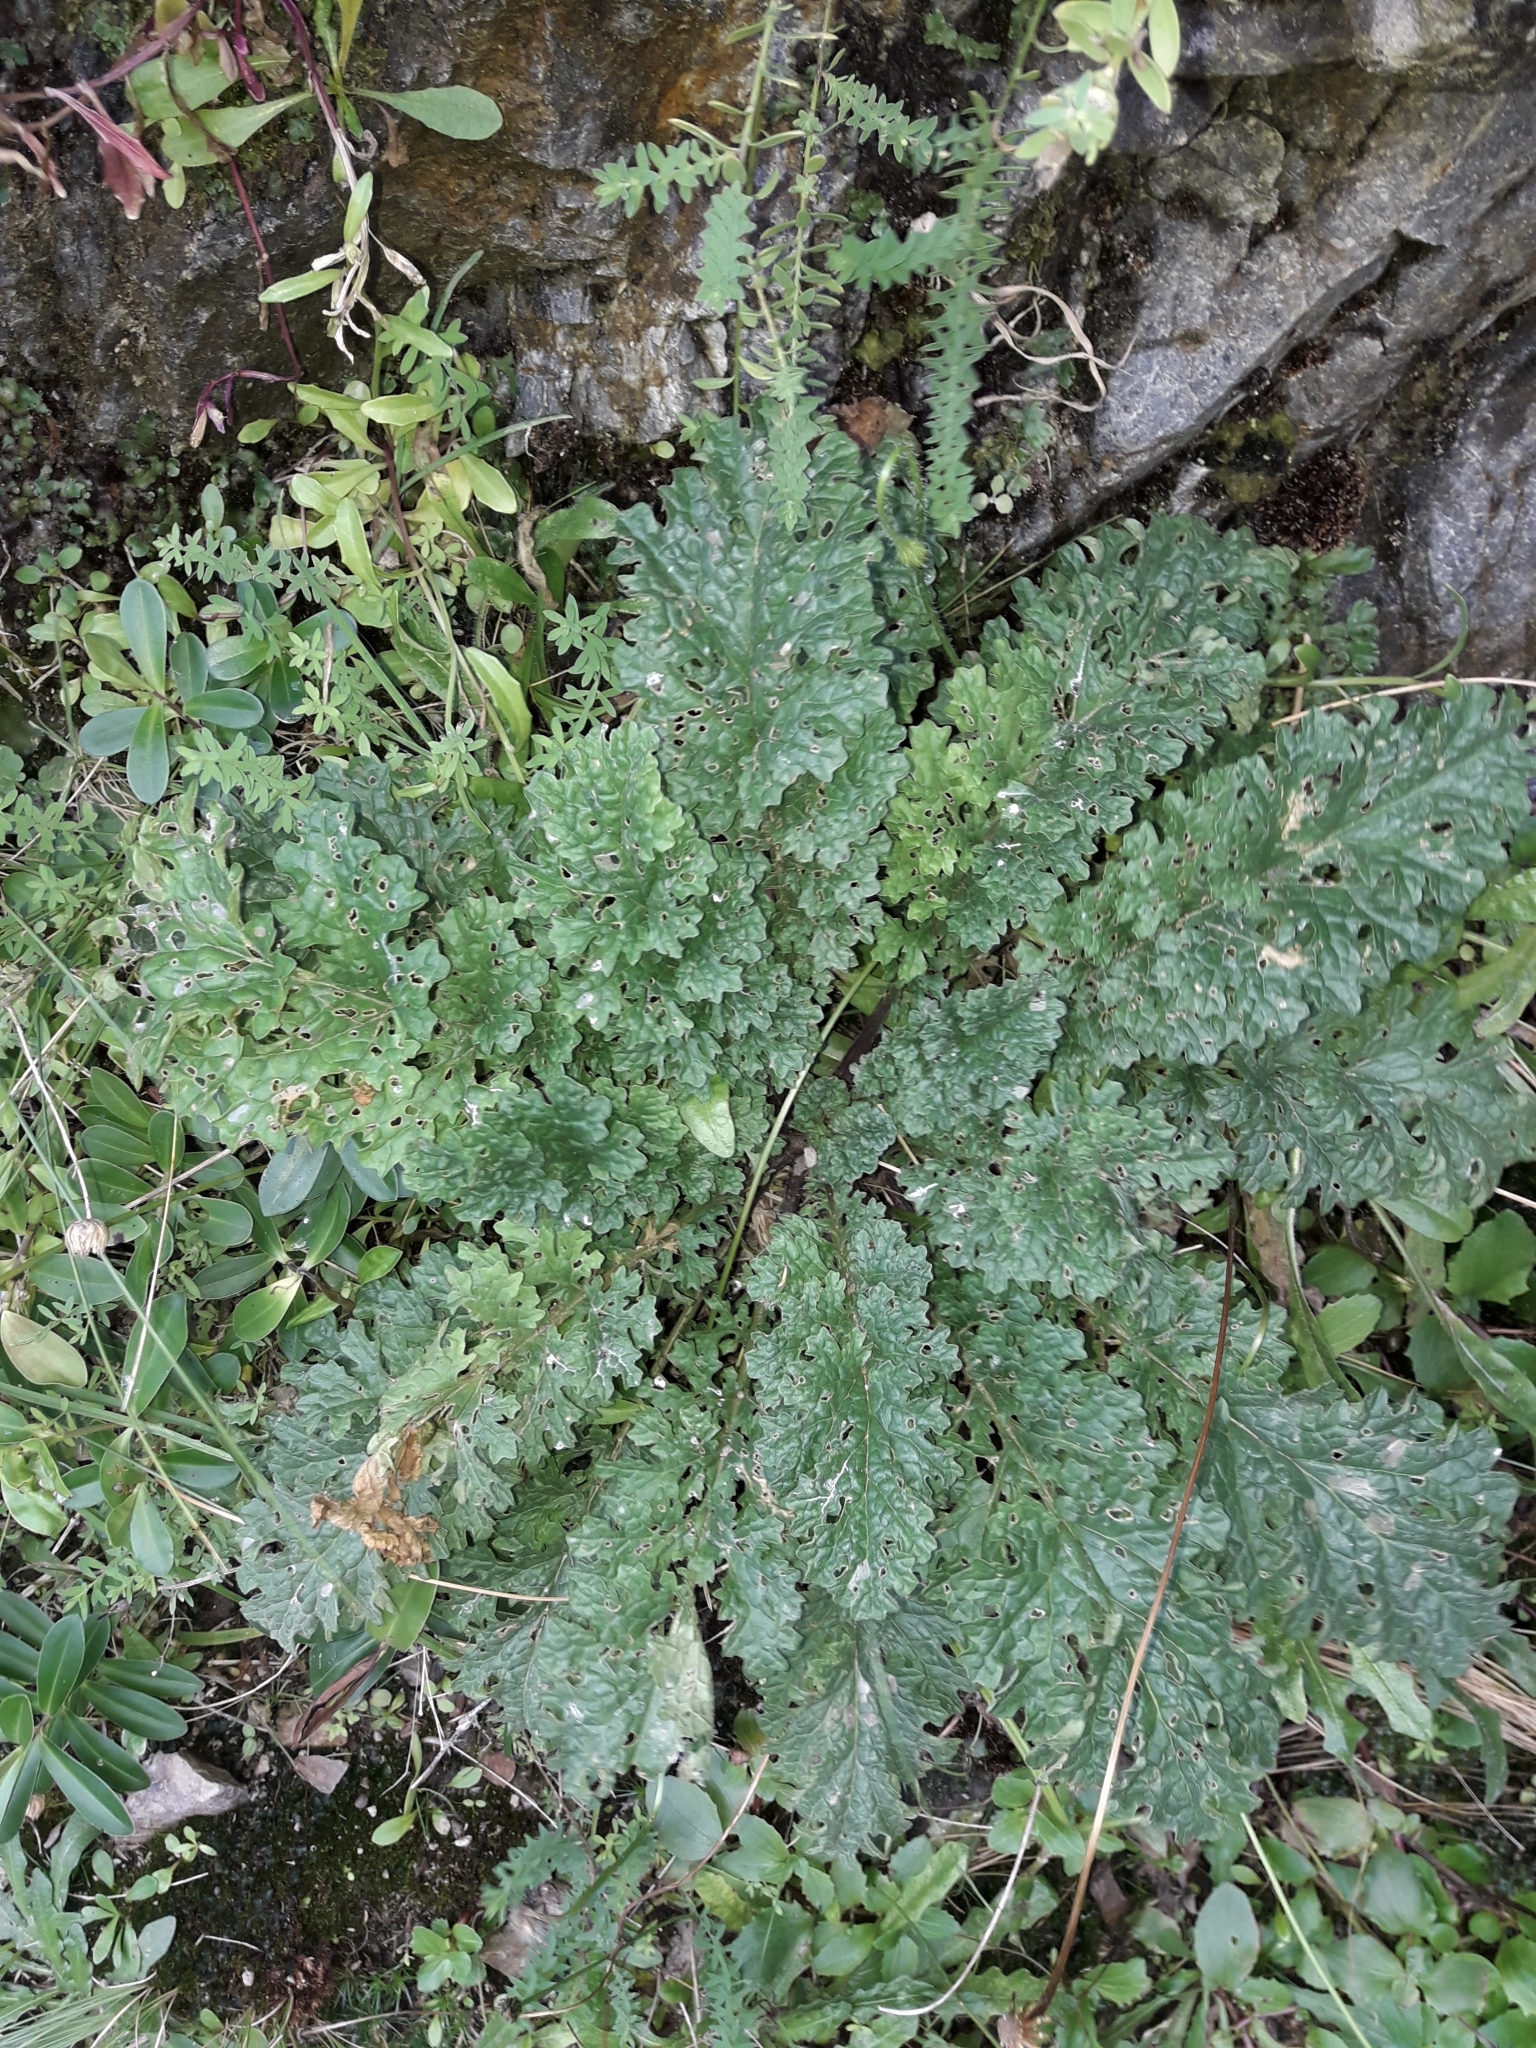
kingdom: Plantae
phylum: Tracheophyta
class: Magnoliopsida
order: Asterales
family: Asteraceae
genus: Jacobaea
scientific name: Jacobaea vulgaris
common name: Stinking willie
